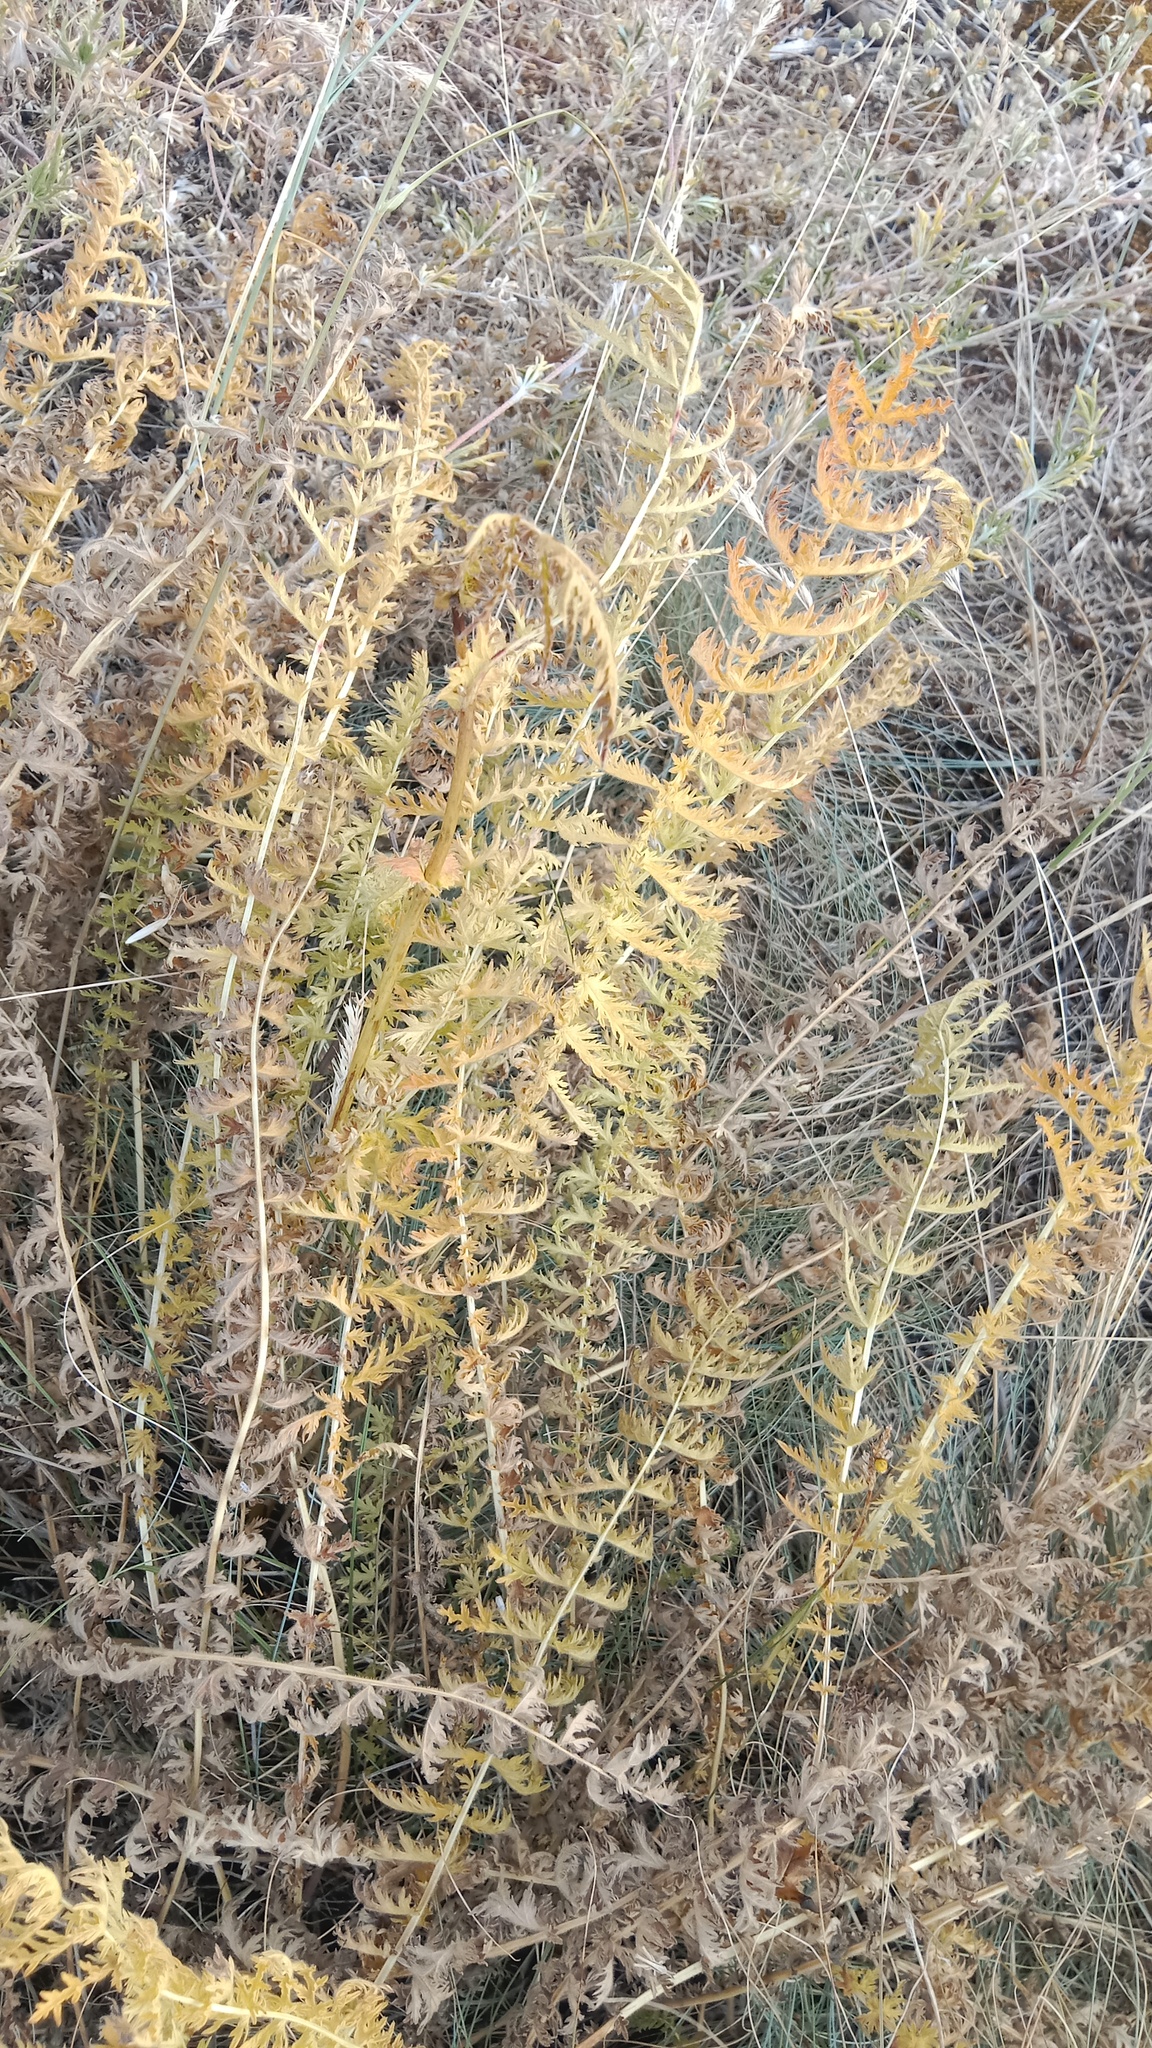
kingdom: Plantae
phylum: Tracheophyta
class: Magnoliopsida
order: Rosales
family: Rosaceae
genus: Filipendula
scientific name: Filipendula vulgaris
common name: Dropwort
